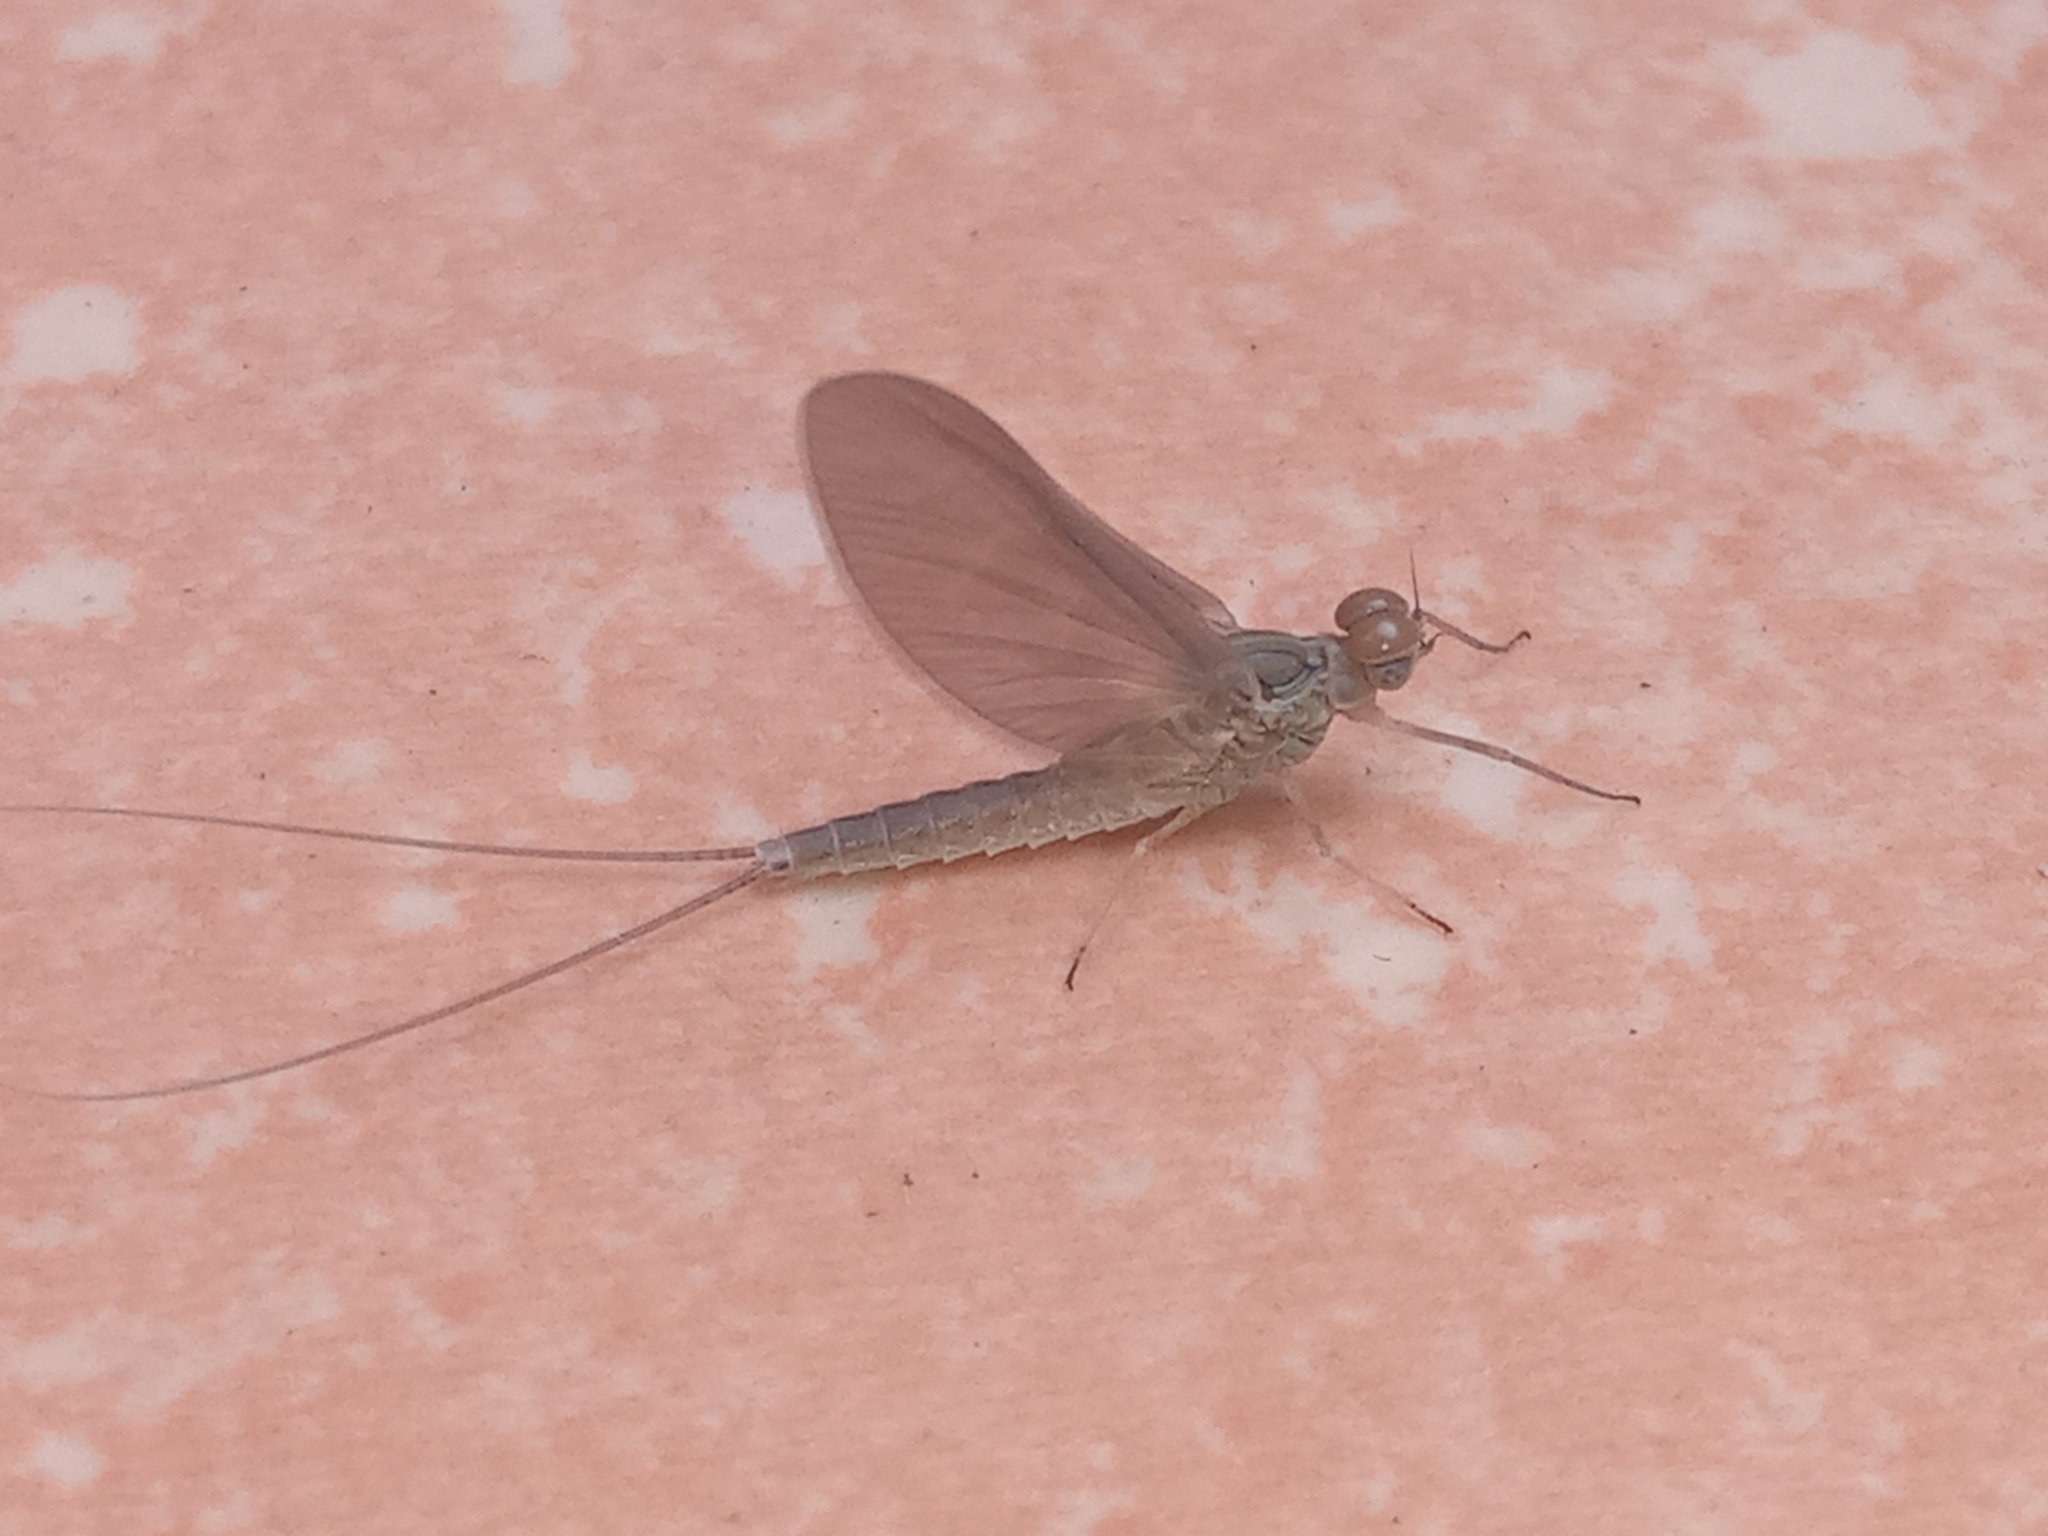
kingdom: Animalia
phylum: Arthropoda
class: Insecta
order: Ephemeroptera
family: Baetidae
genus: Callibaetis
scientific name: Callibaetis pictus
